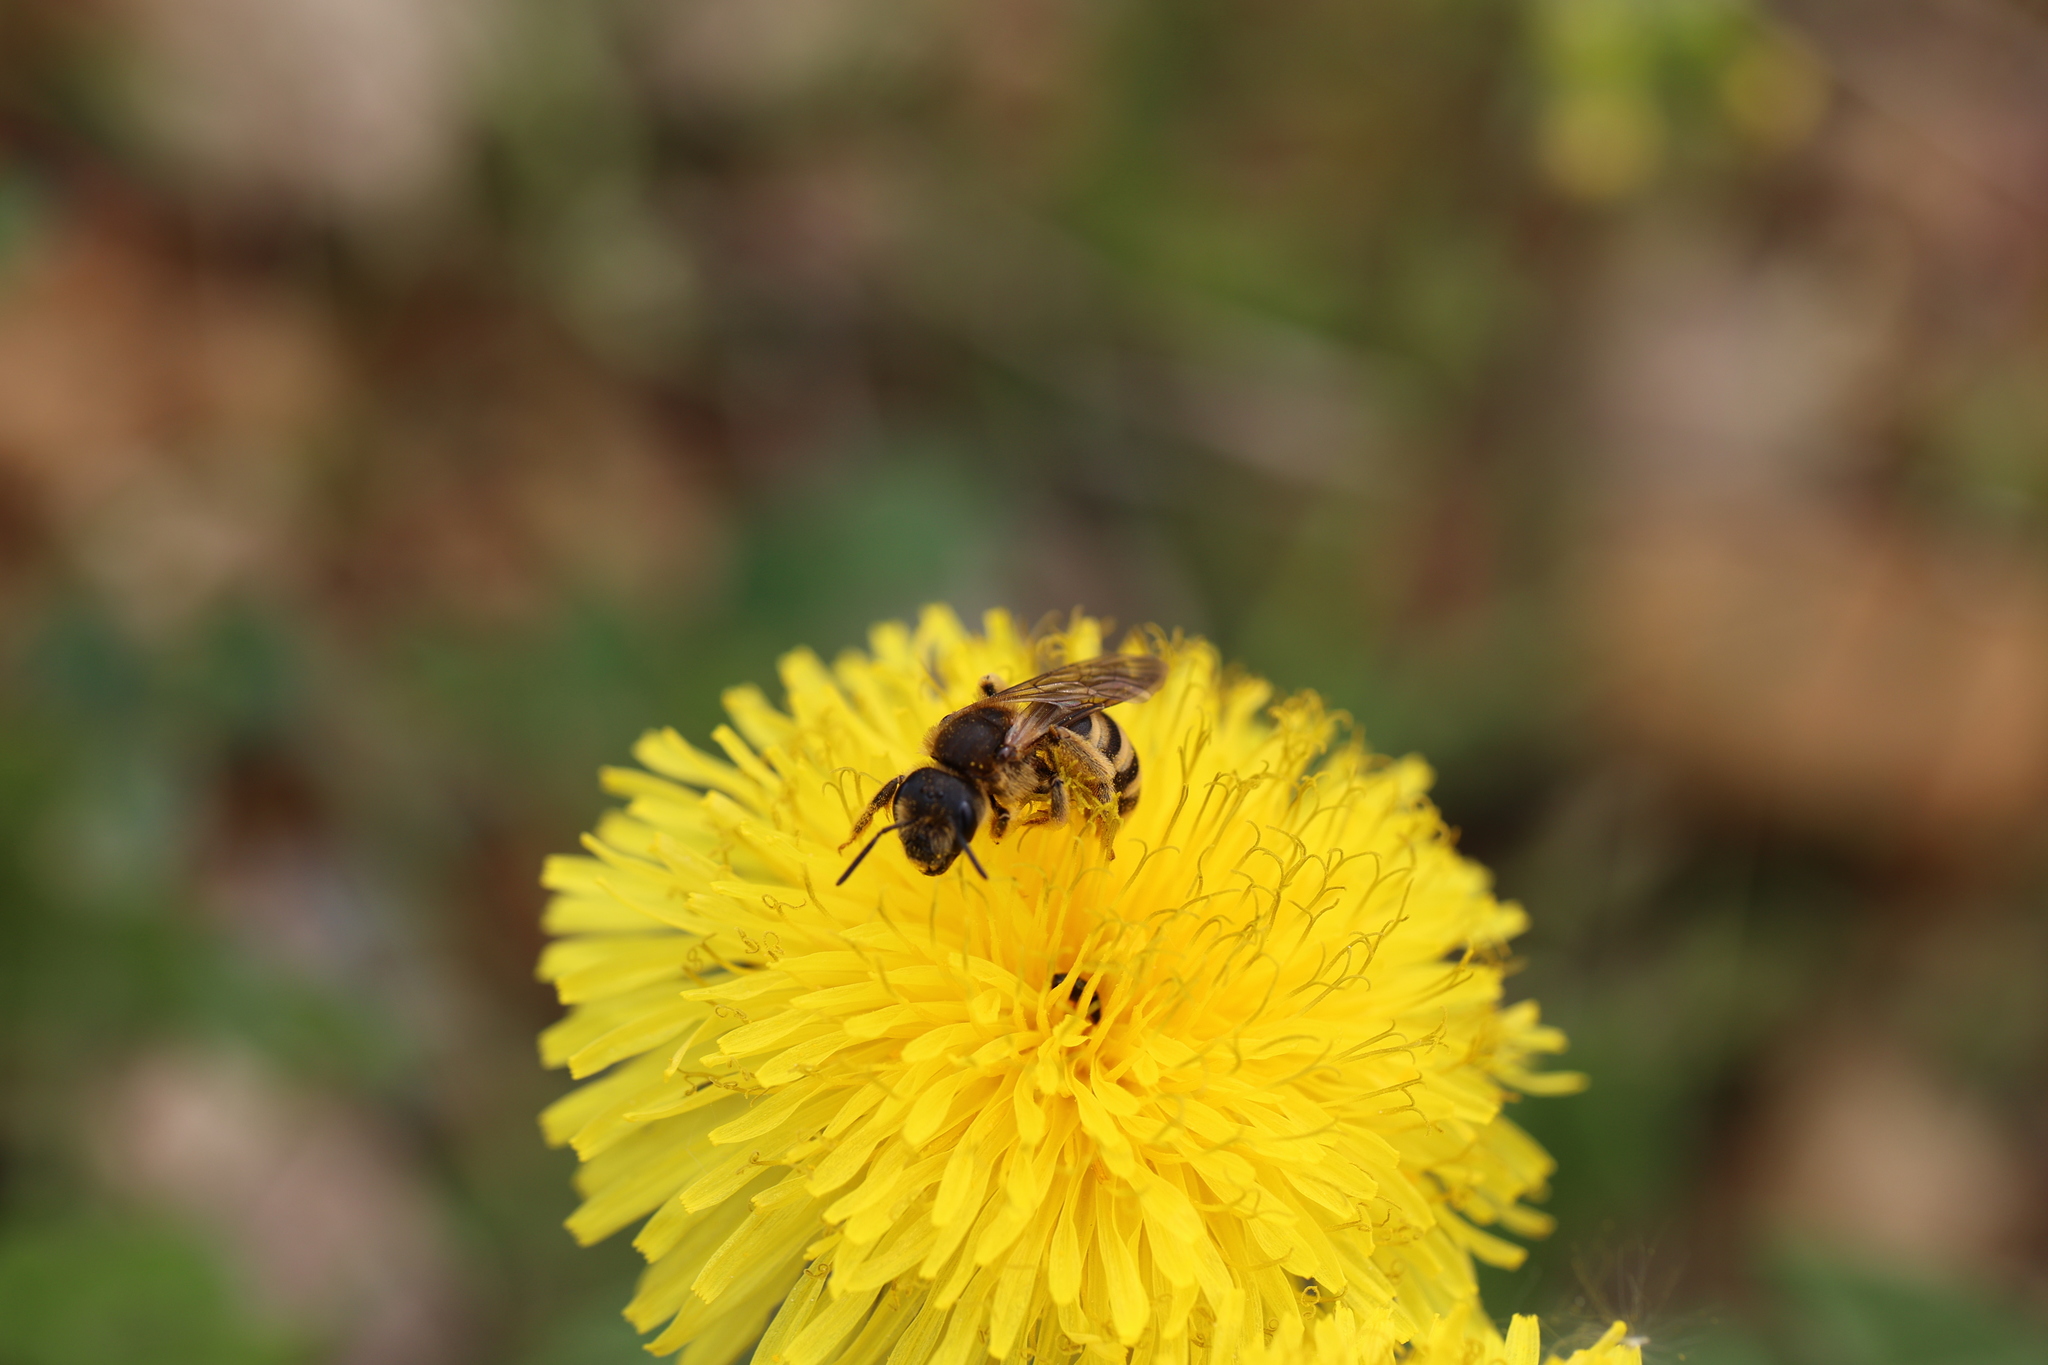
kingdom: Animalia
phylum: Arthropoda
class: Insecta
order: Hymenoptera
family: Halictidae
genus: Halictus
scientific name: Halictus scabiosae
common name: Great banded furrow bee
